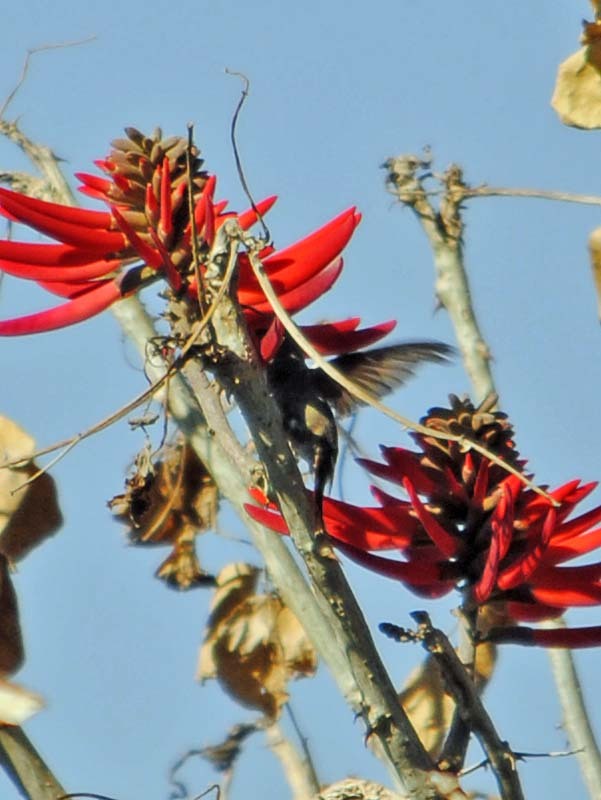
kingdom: Animalia
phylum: Chordata
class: Aves
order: Apodiformes
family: Trochilidae
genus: Saucerottia
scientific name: Saucerottia beryllina
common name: Berylline hummingbird
